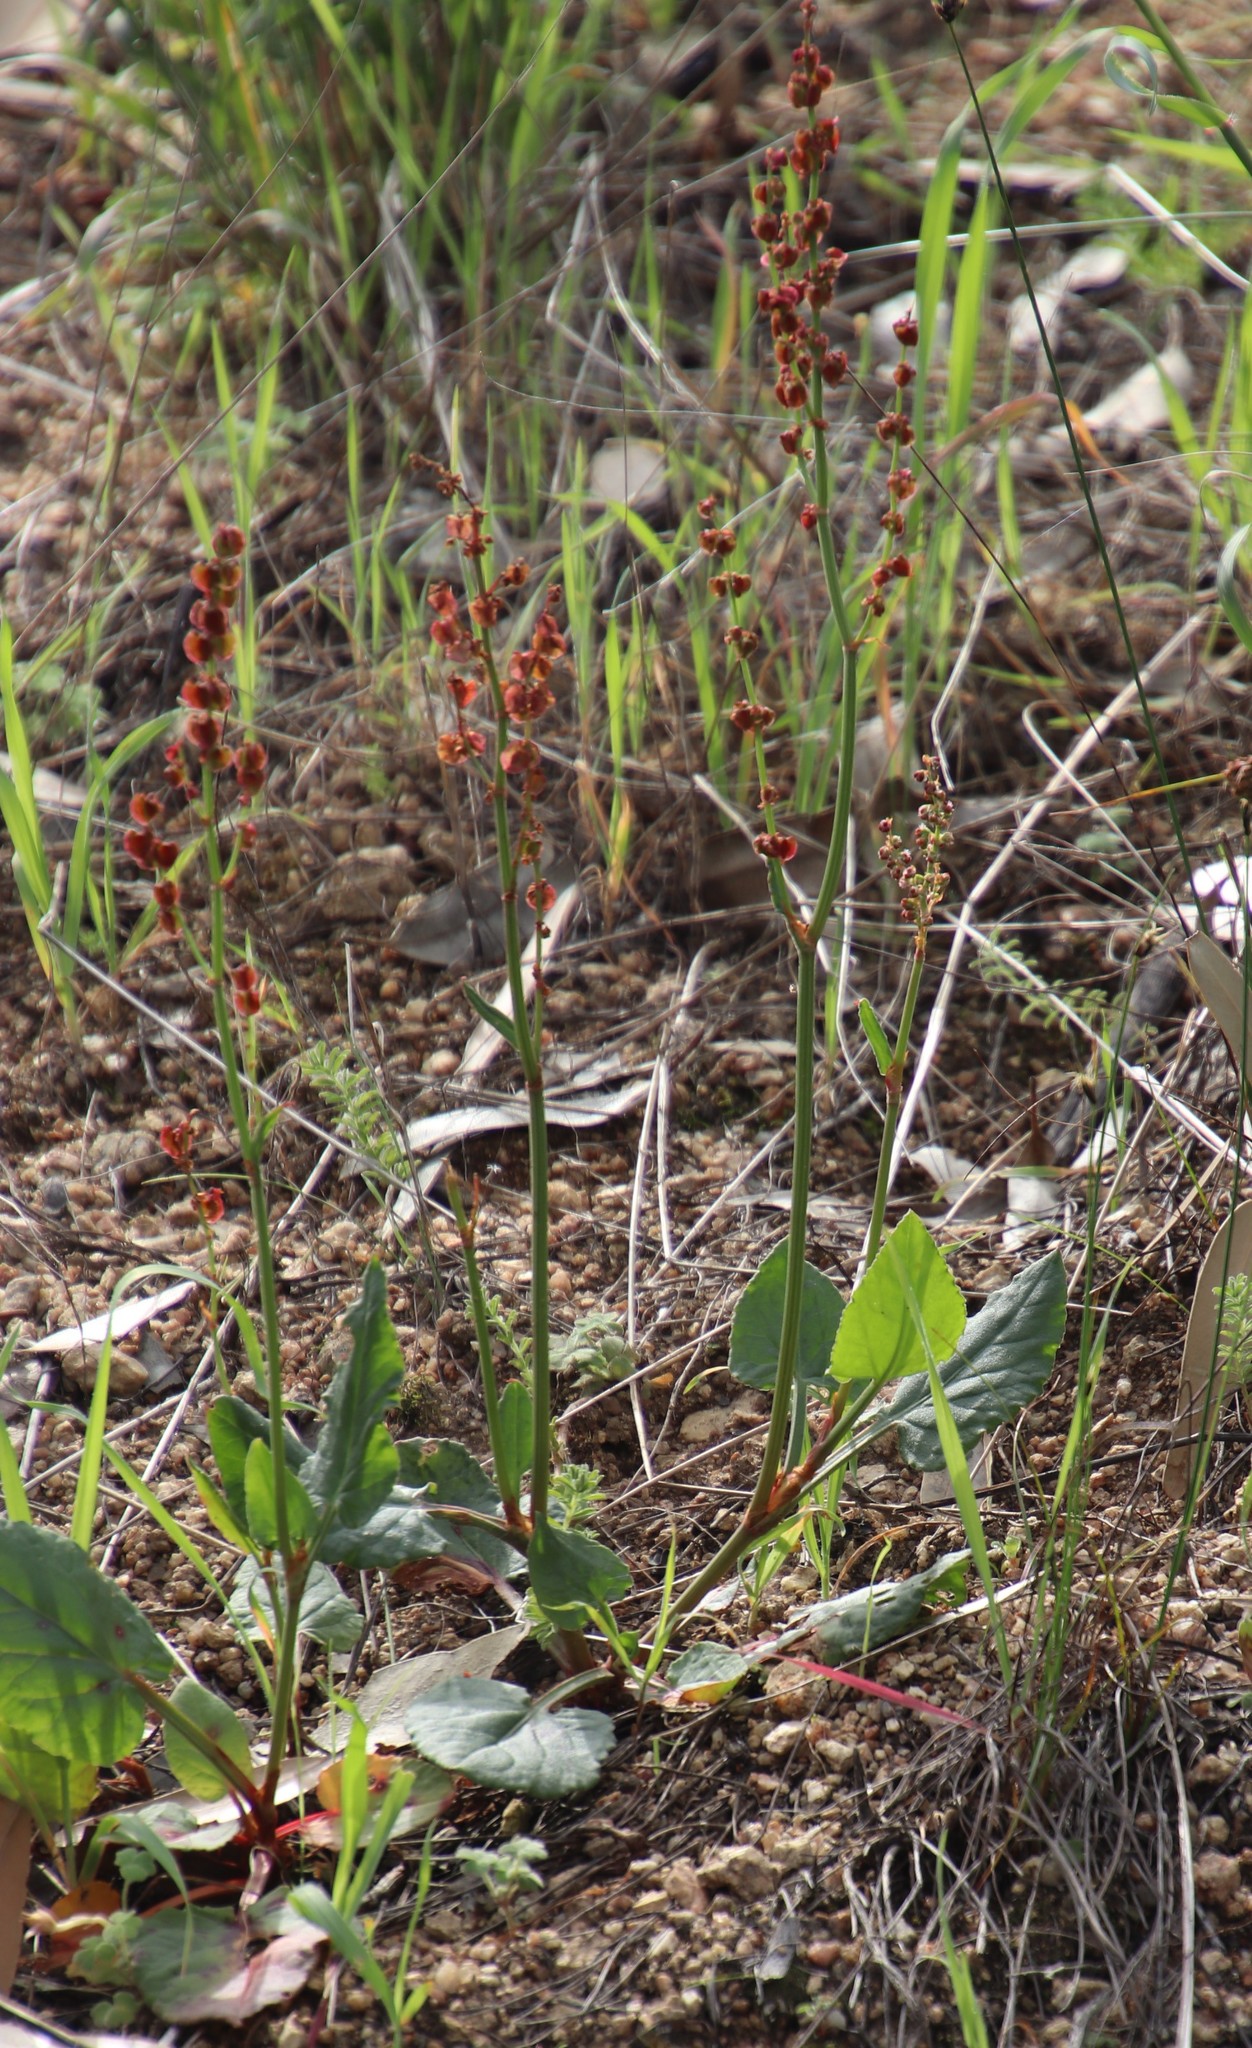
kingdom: Plantae
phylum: Tracheophyta
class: Magnoliopsida
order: Caryophyllales
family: Polygonaceae
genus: Rumex
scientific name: Rumex cordatus
